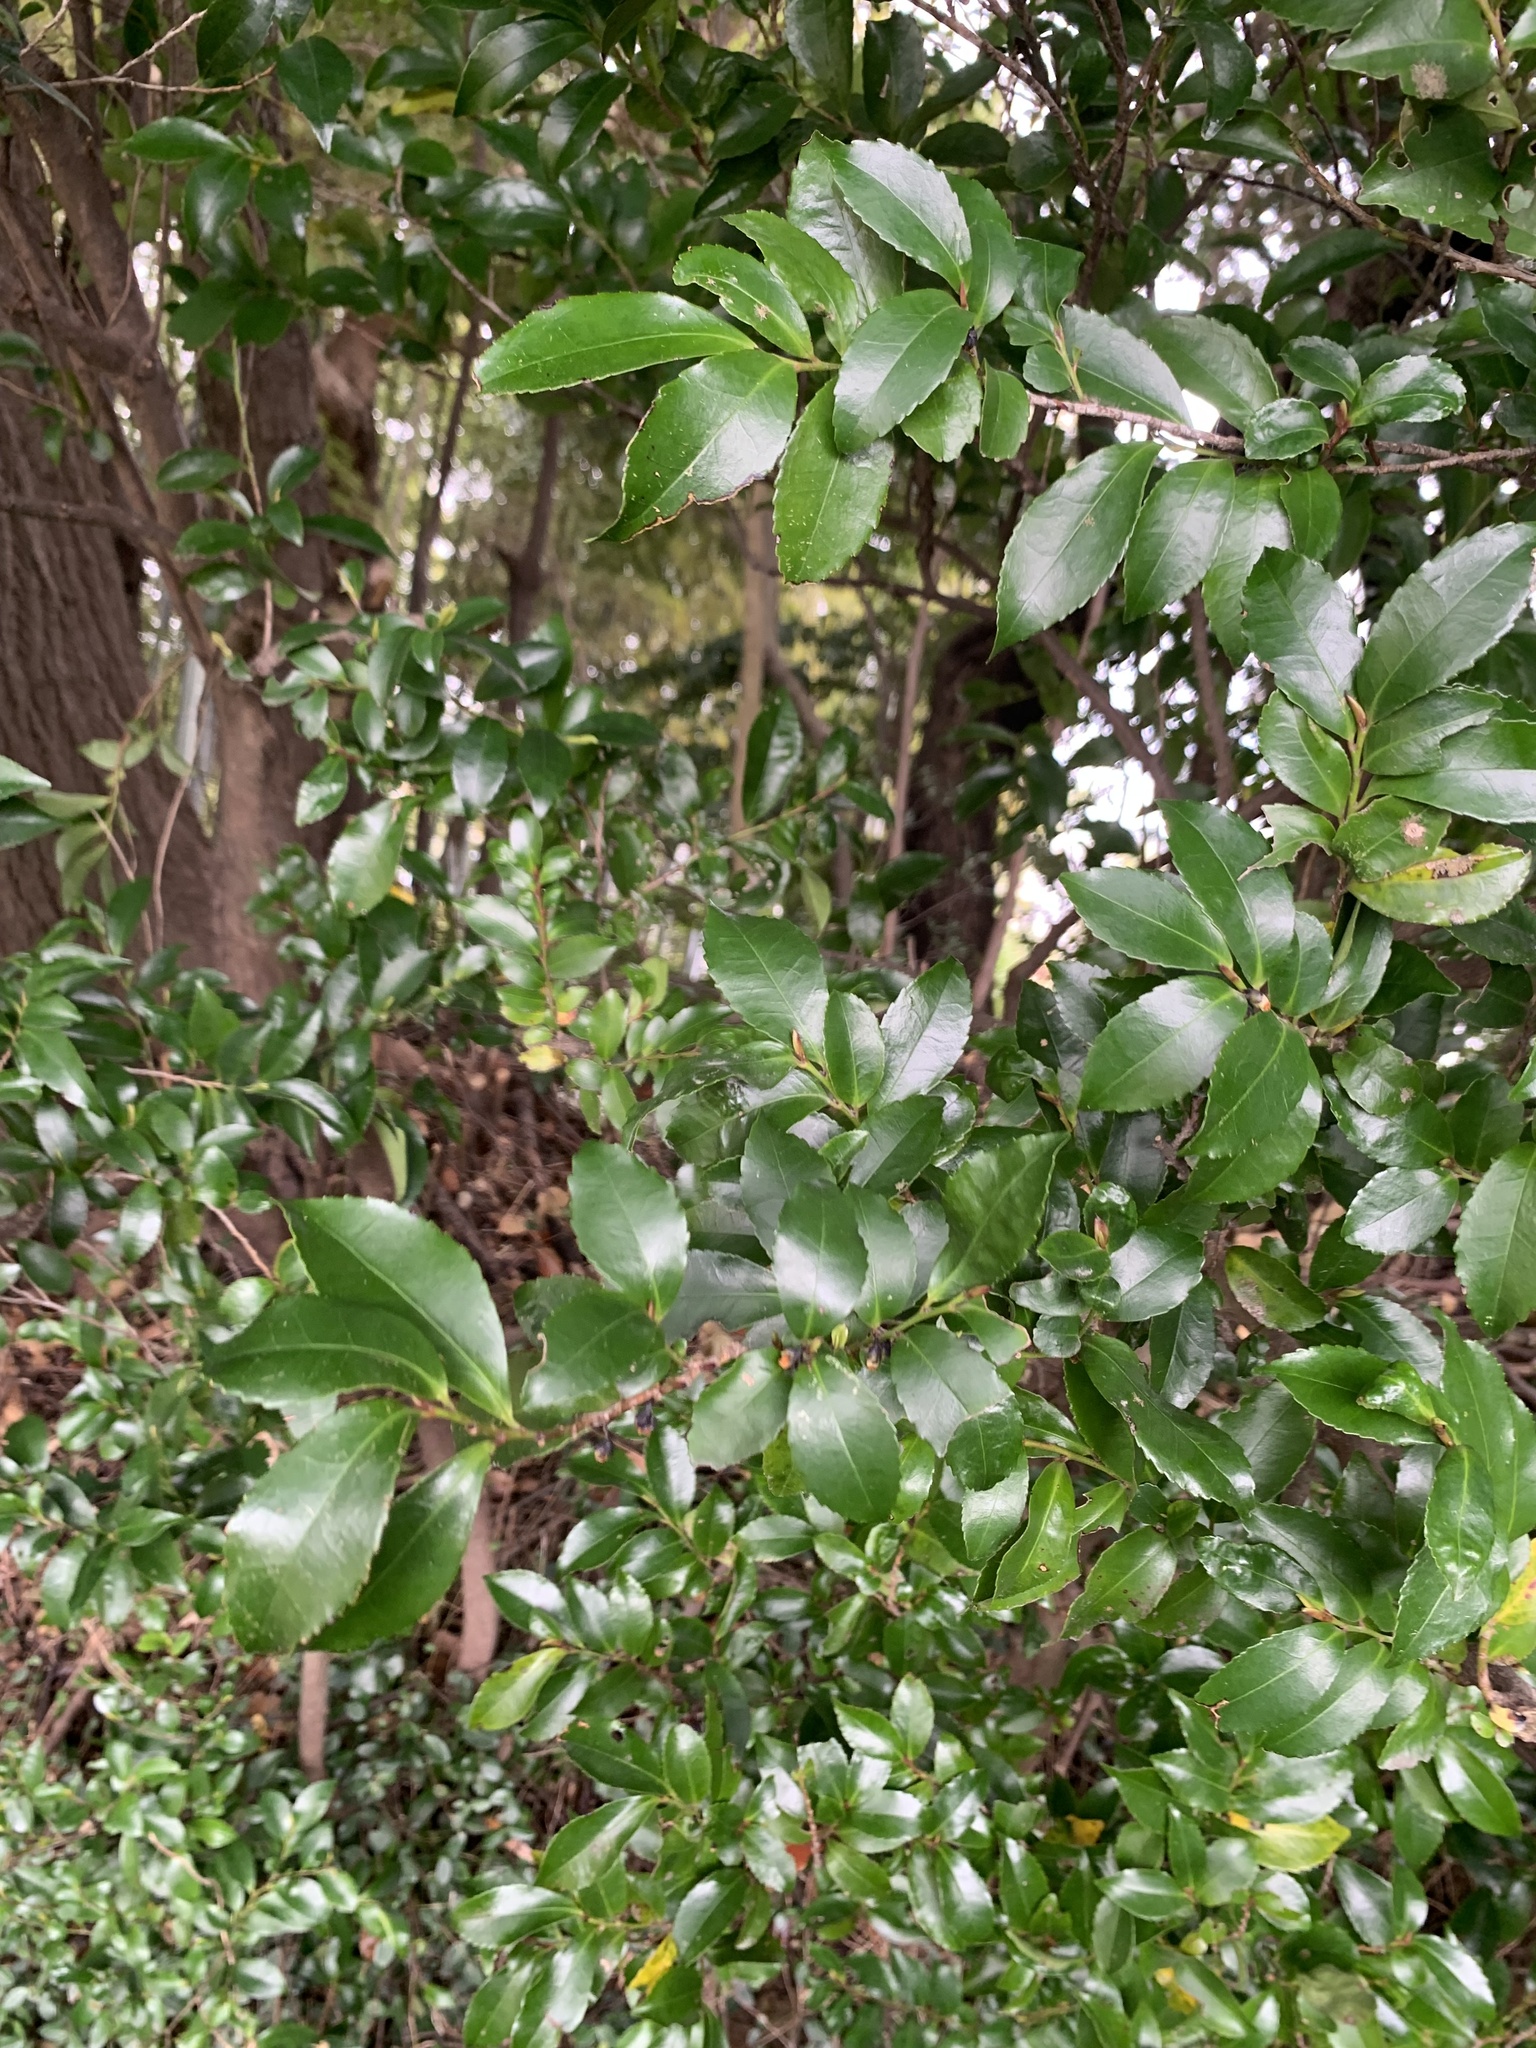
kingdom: Plantae
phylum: Tracheophyta
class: Magnoliopsida
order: Ericales
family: Pentaphylacaceae
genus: Eurya
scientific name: Eurya japonica
